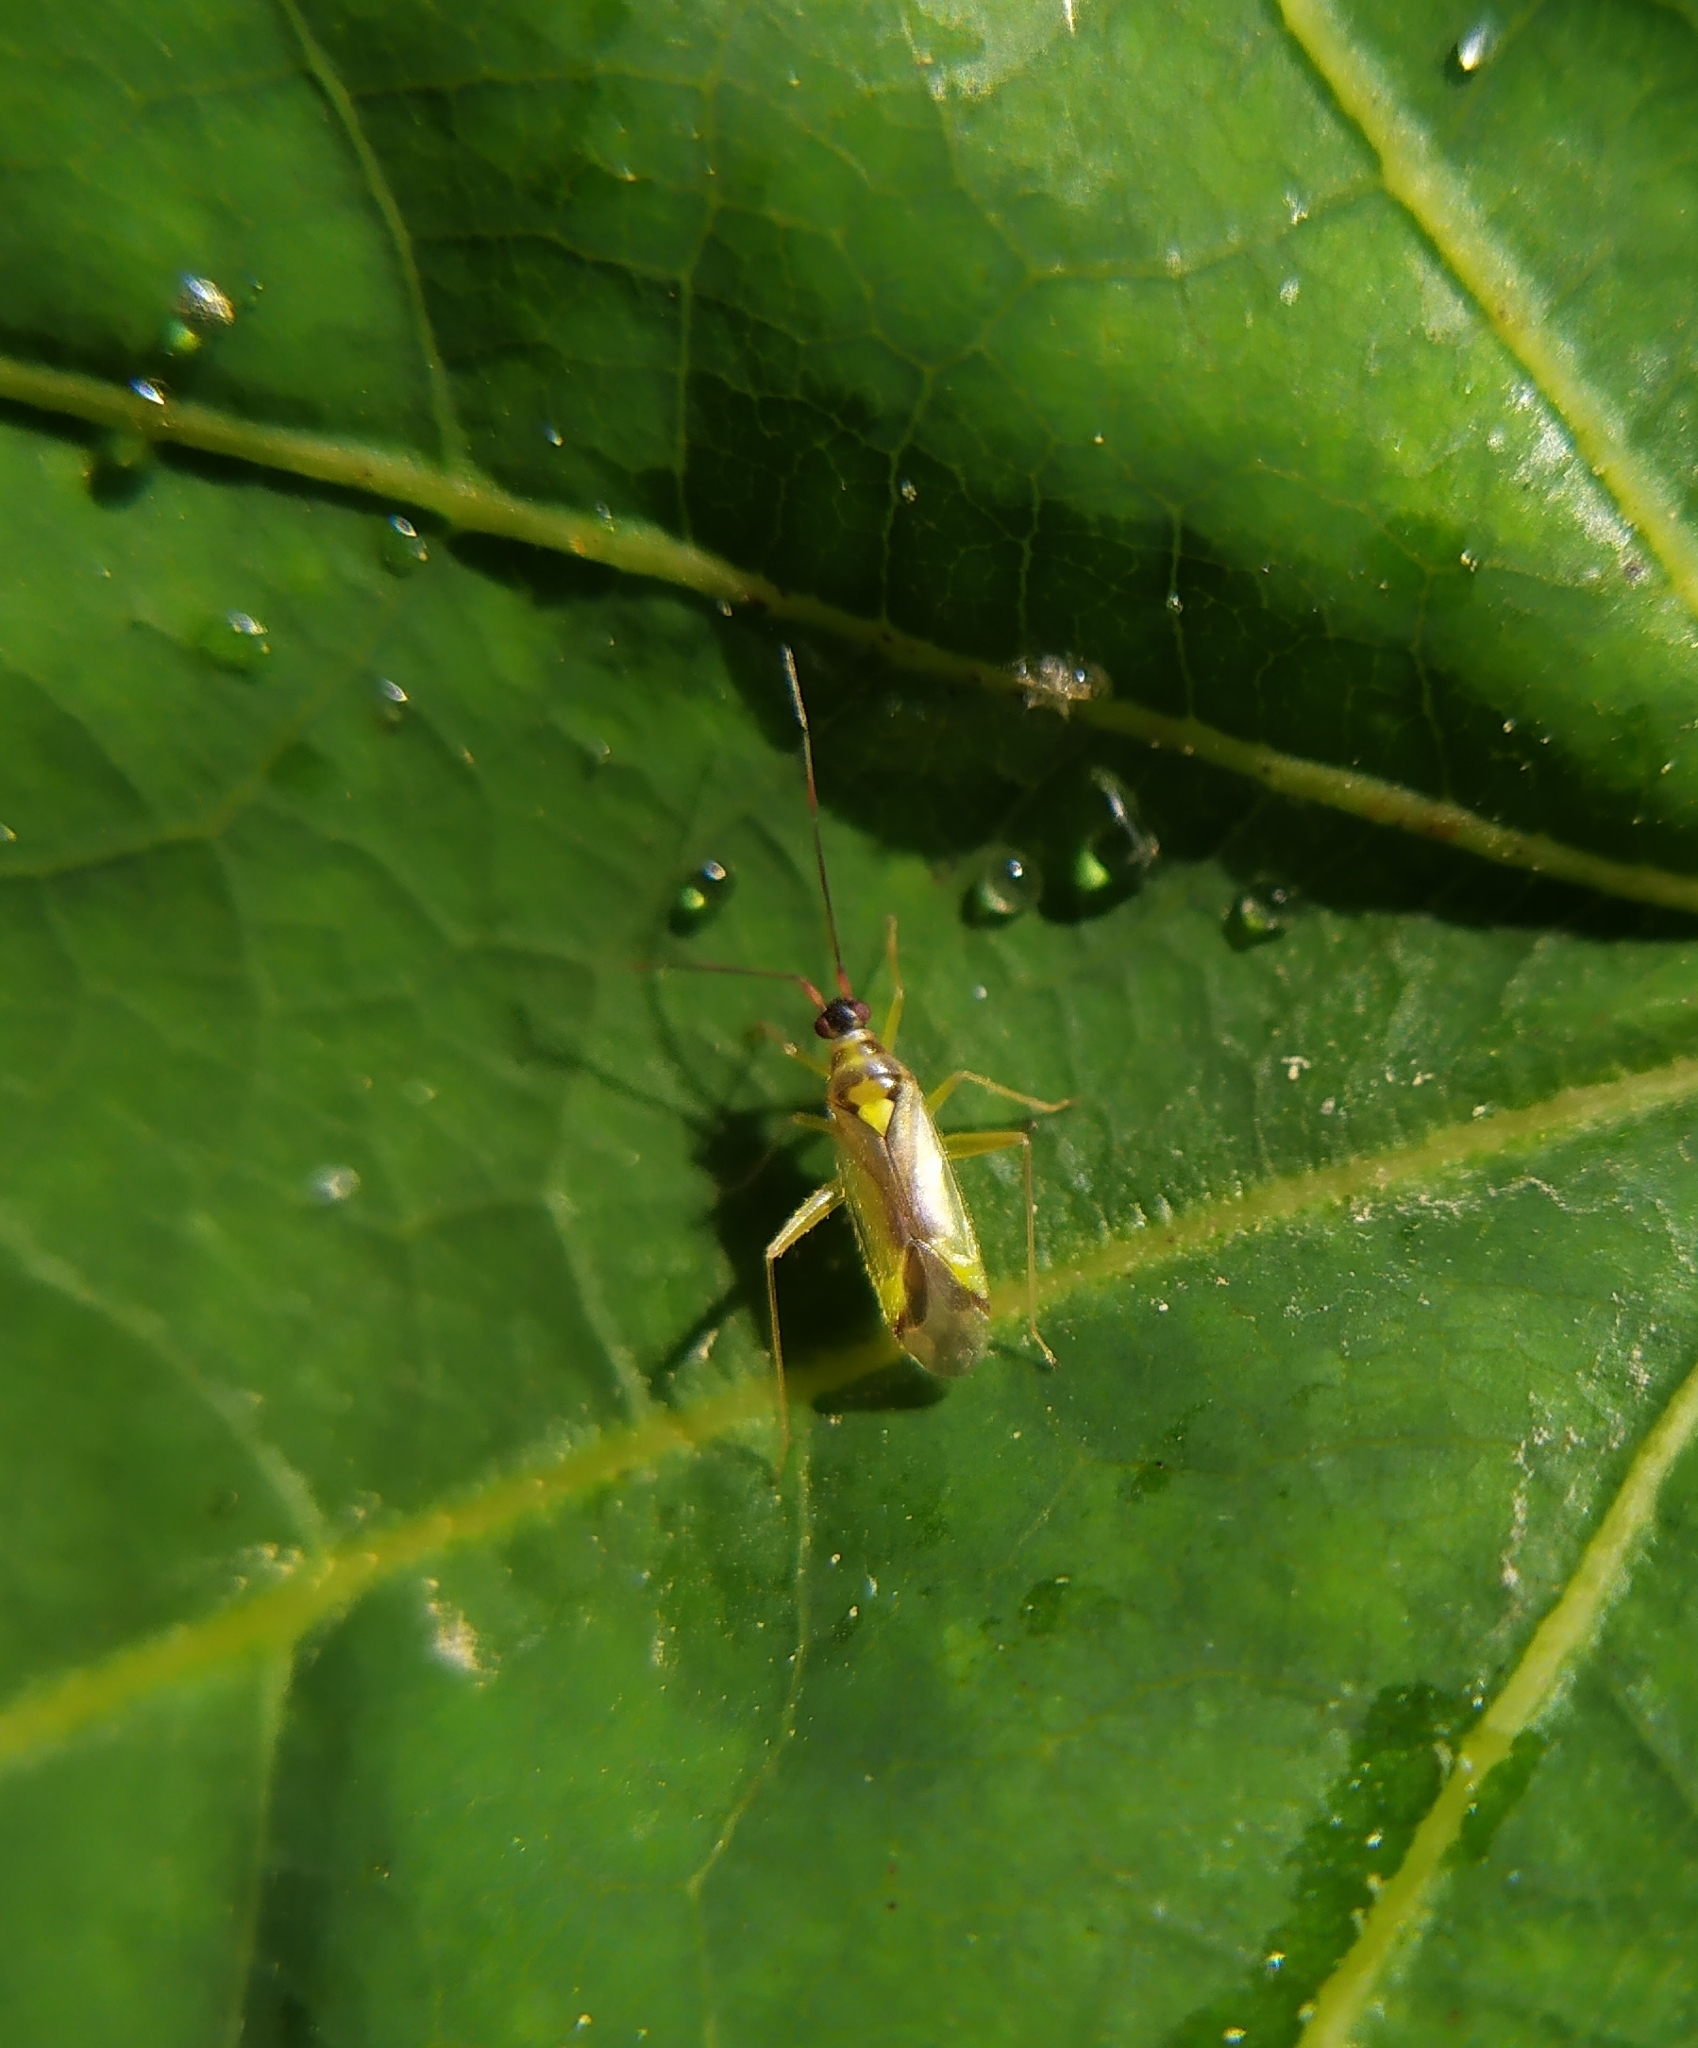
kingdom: Animalia
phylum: Arthropoda
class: Insecta
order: Hemiptera
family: Miridae
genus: Campyloneura
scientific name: Campyloneura virgula
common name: Predatory bug
